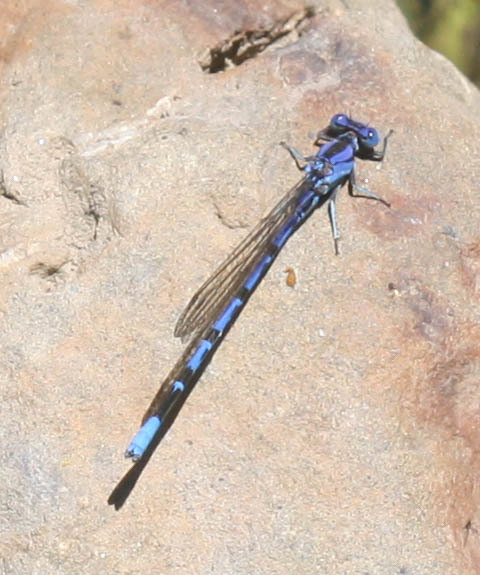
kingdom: Animalia
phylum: Arthropoda
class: Insecta
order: Odonata
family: Coenagrionidae
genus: Argia
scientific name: Argia vivida
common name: Vivid dancer
